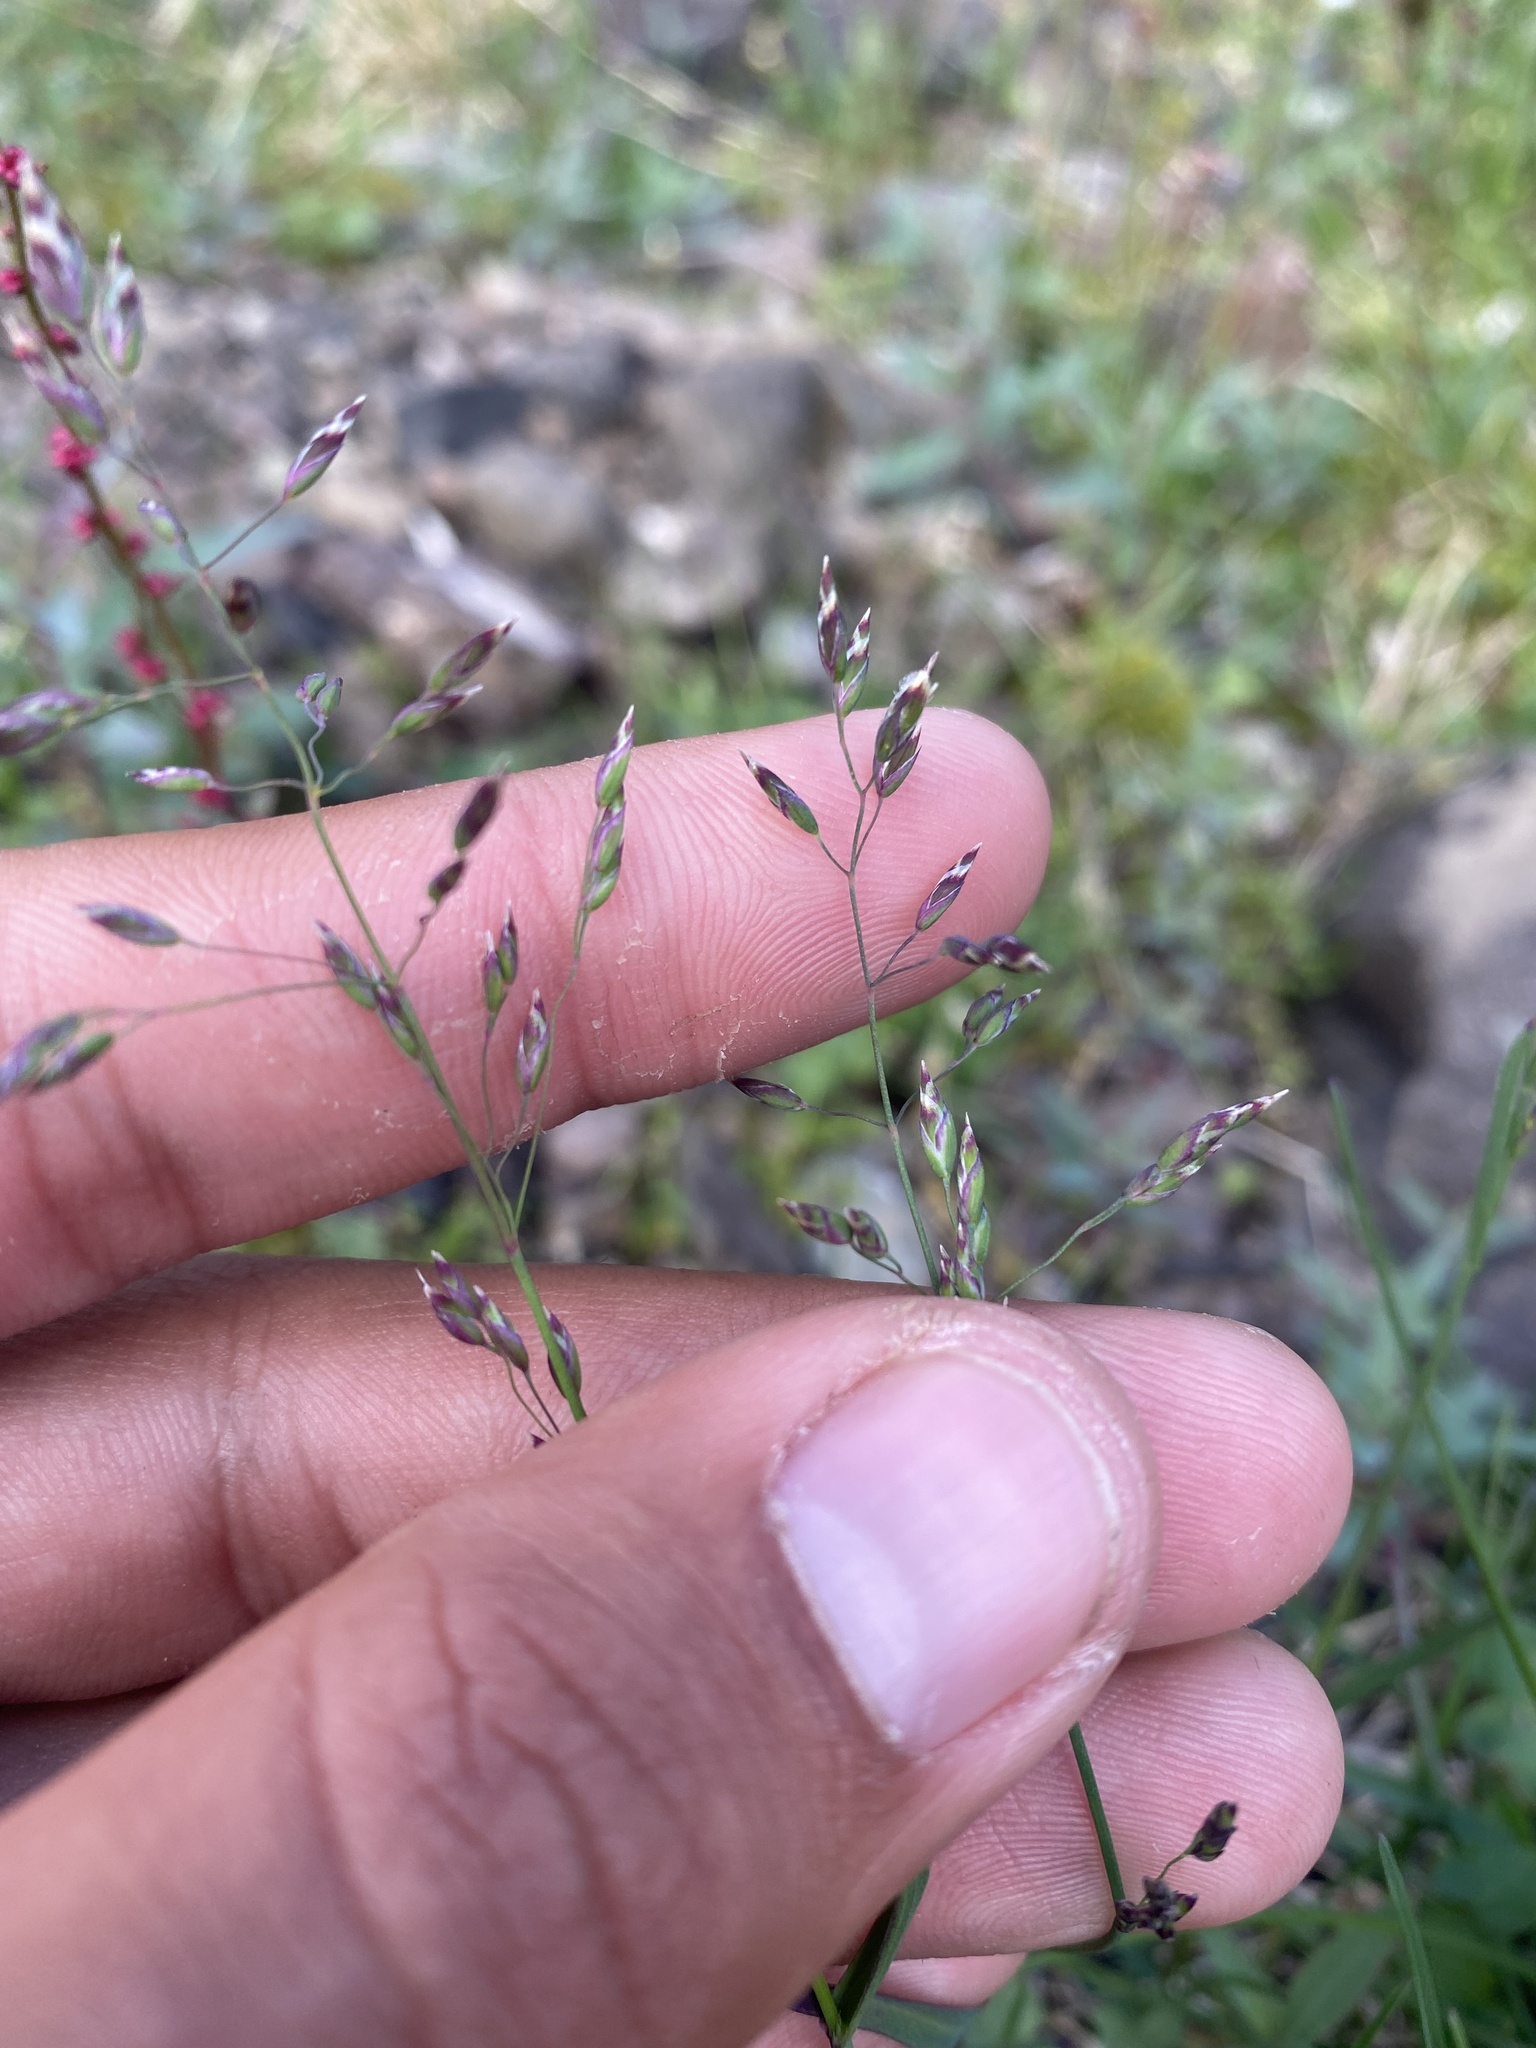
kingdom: Plantae
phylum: Tracheophyta
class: Liliopsida
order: Poales
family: Poaceae
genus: Poa
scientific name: Poa arctica
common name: Arctic bluegrass
